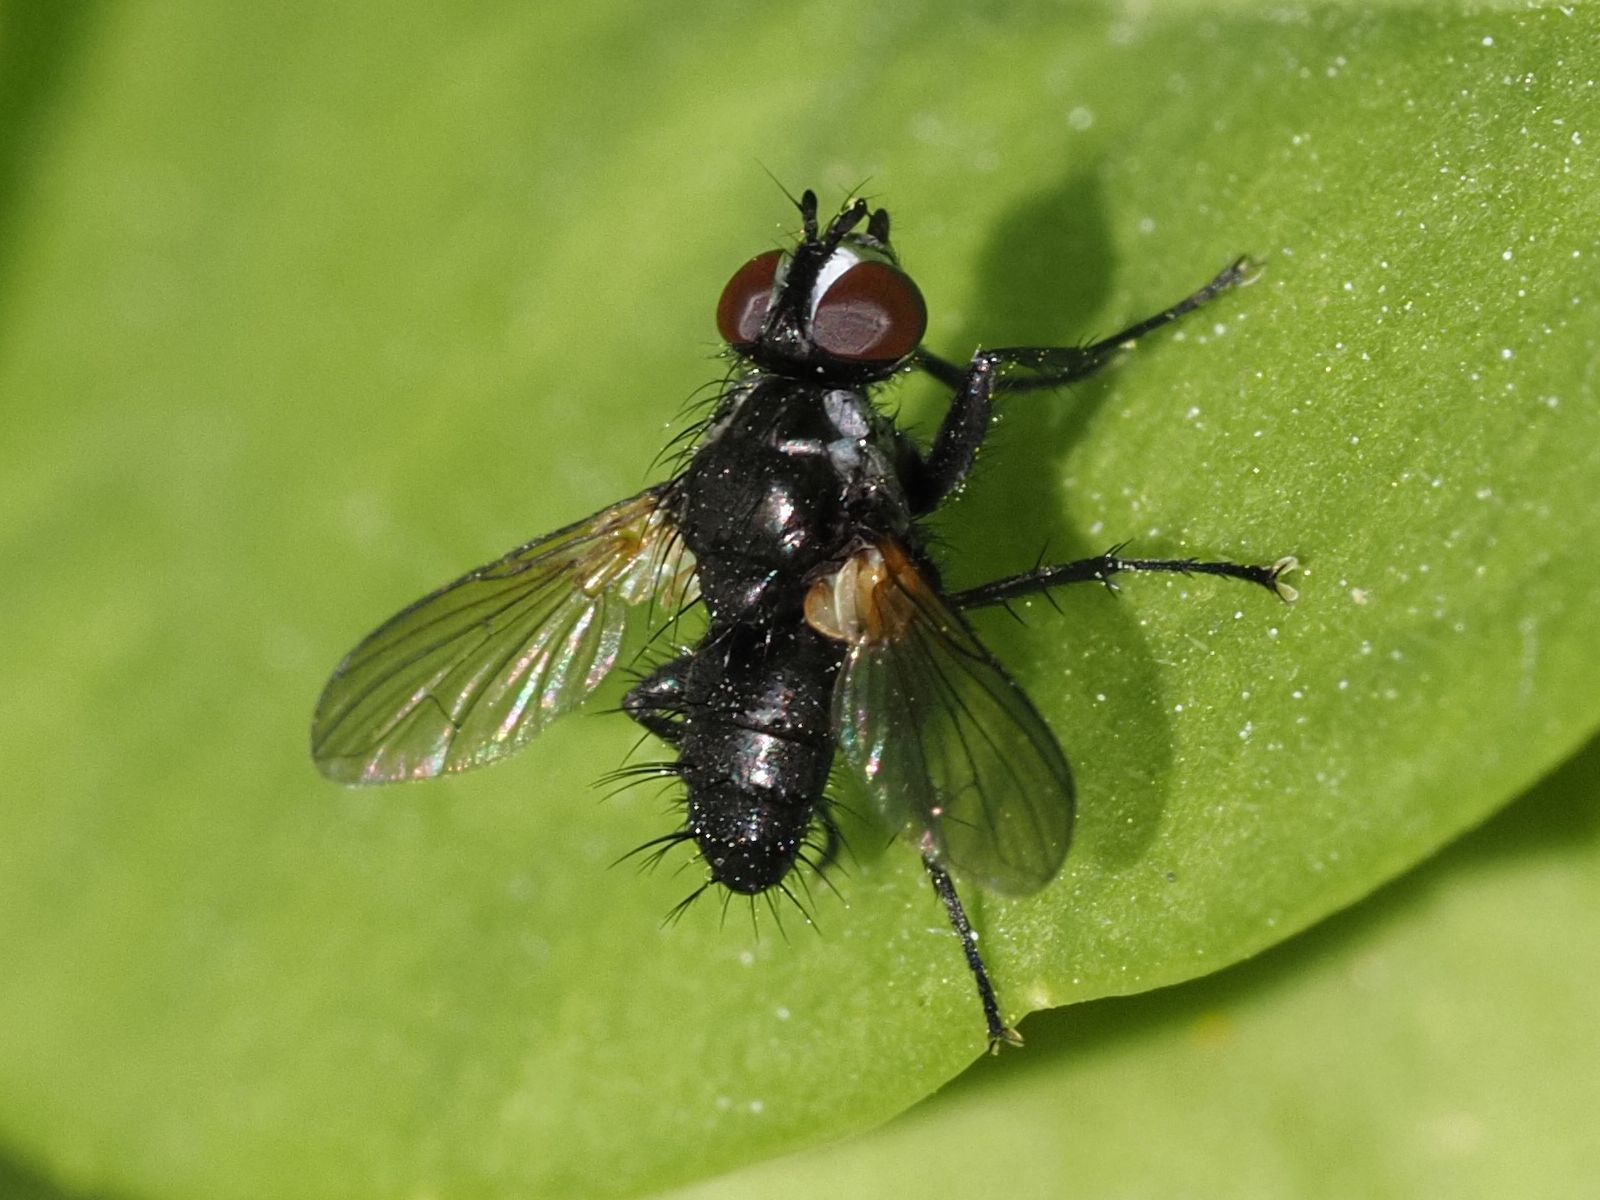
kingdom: Animalia
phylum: Arthropoda
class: Insecta
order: Diptera
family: Tachinidae
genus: Phania
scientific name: Phania funesta
